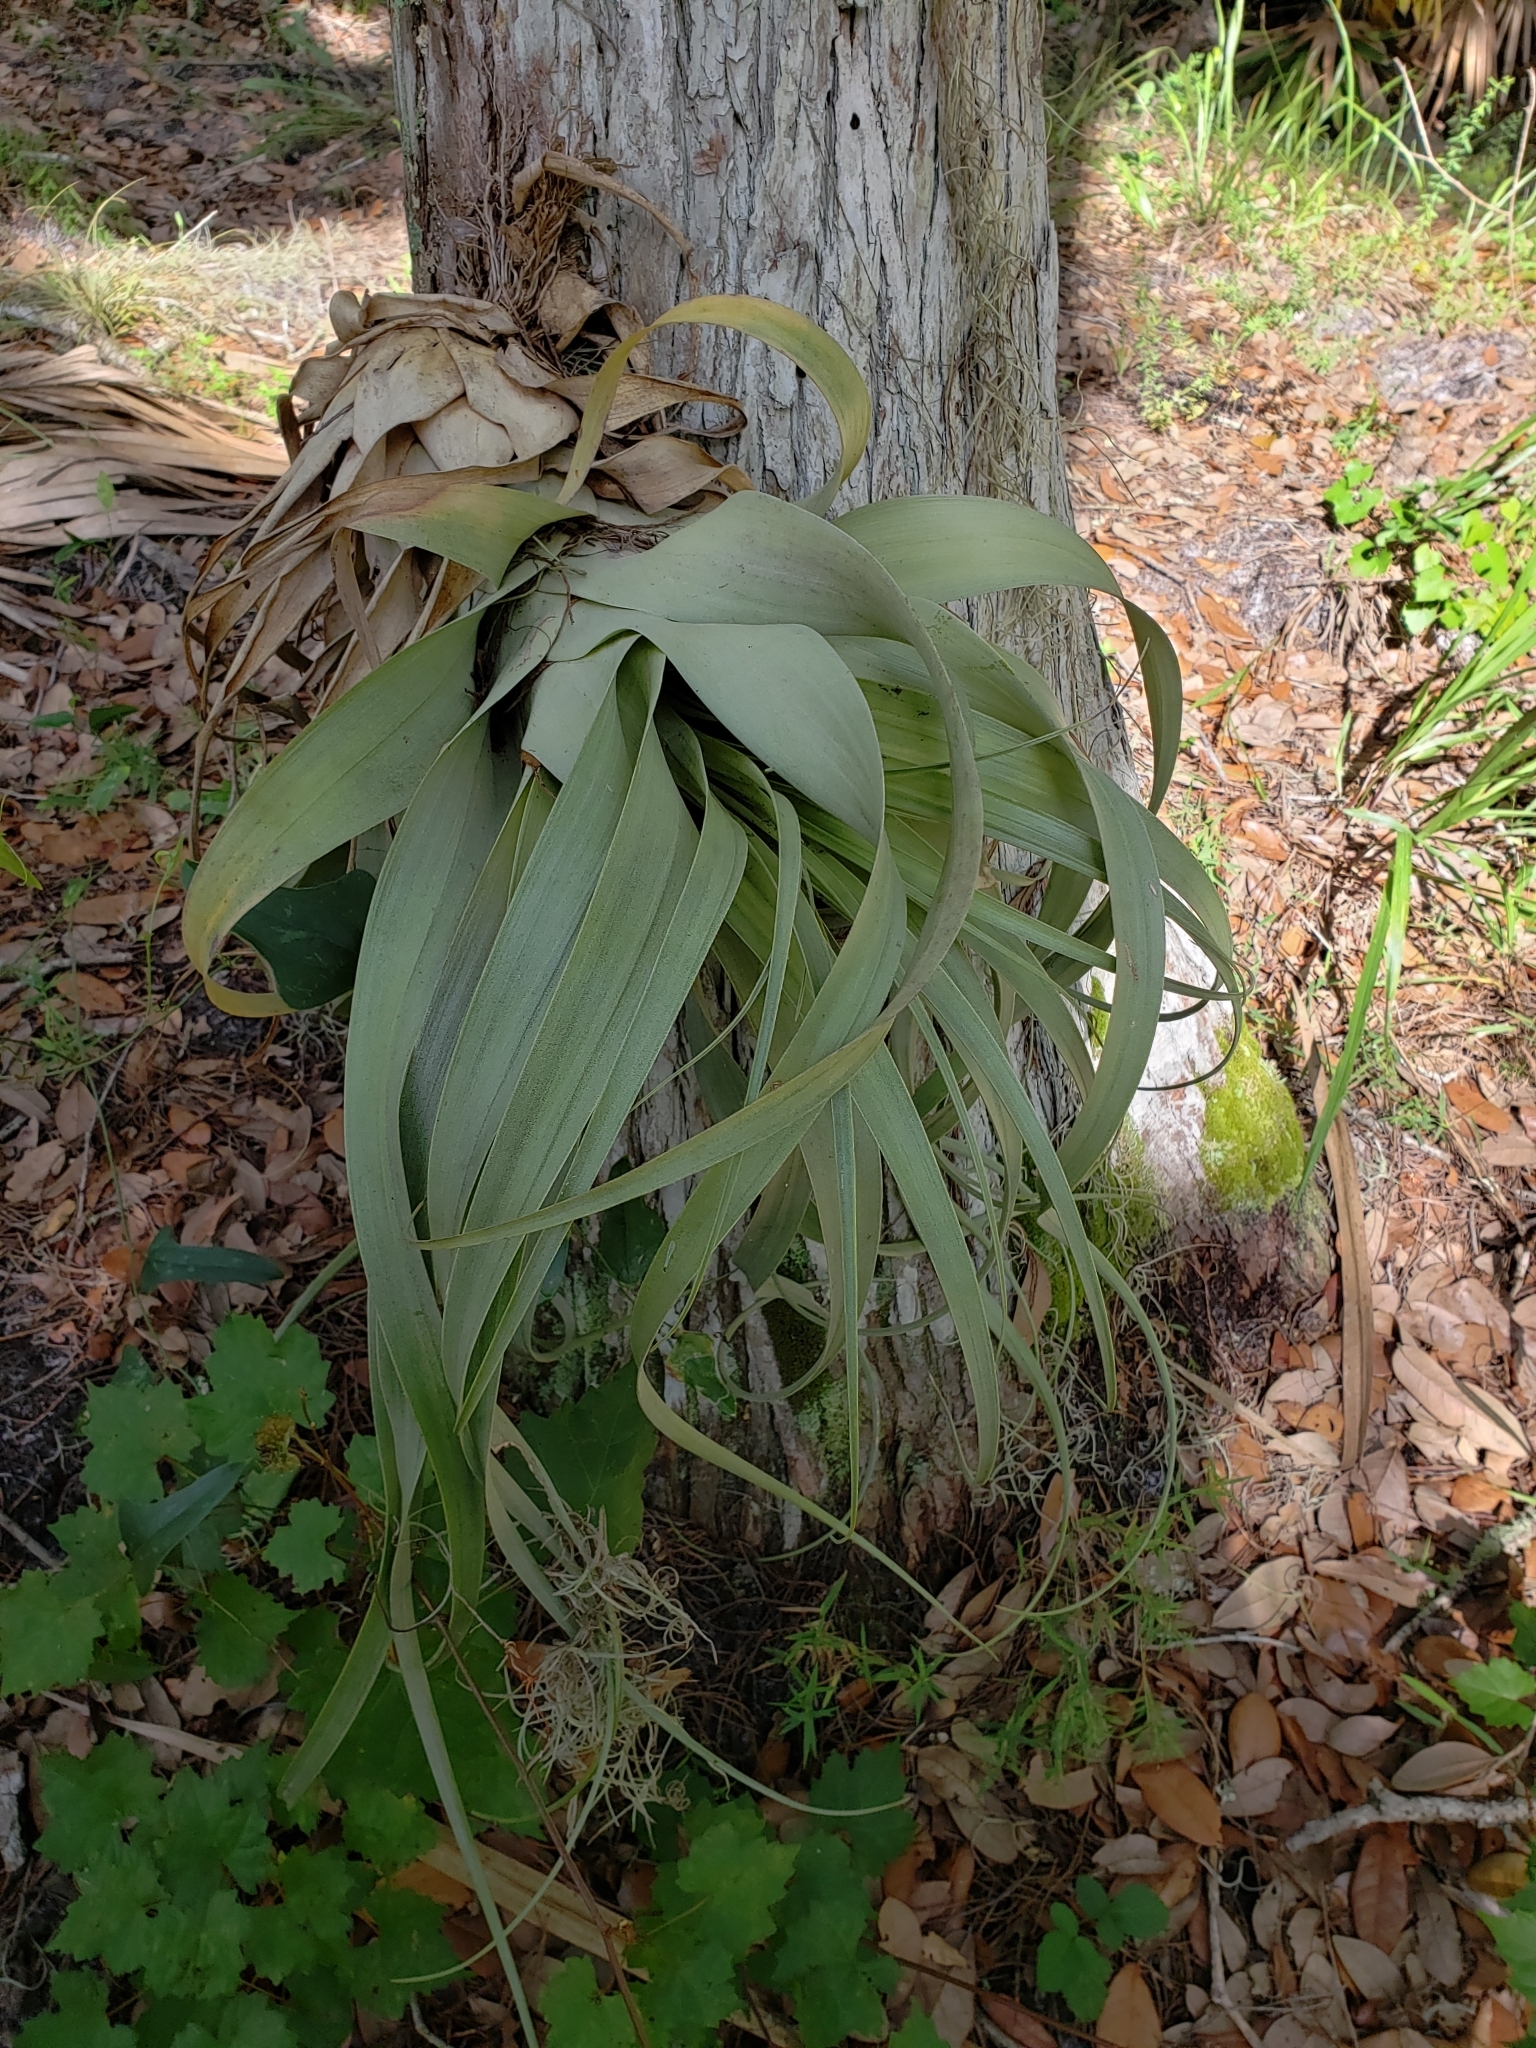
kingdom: Plantae
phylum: Tracheophyta
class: Liliopsida
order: Poales
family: Bromeliaceae
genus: Tillandsia
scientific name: Tillandsia utriculata
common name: Wild pine
